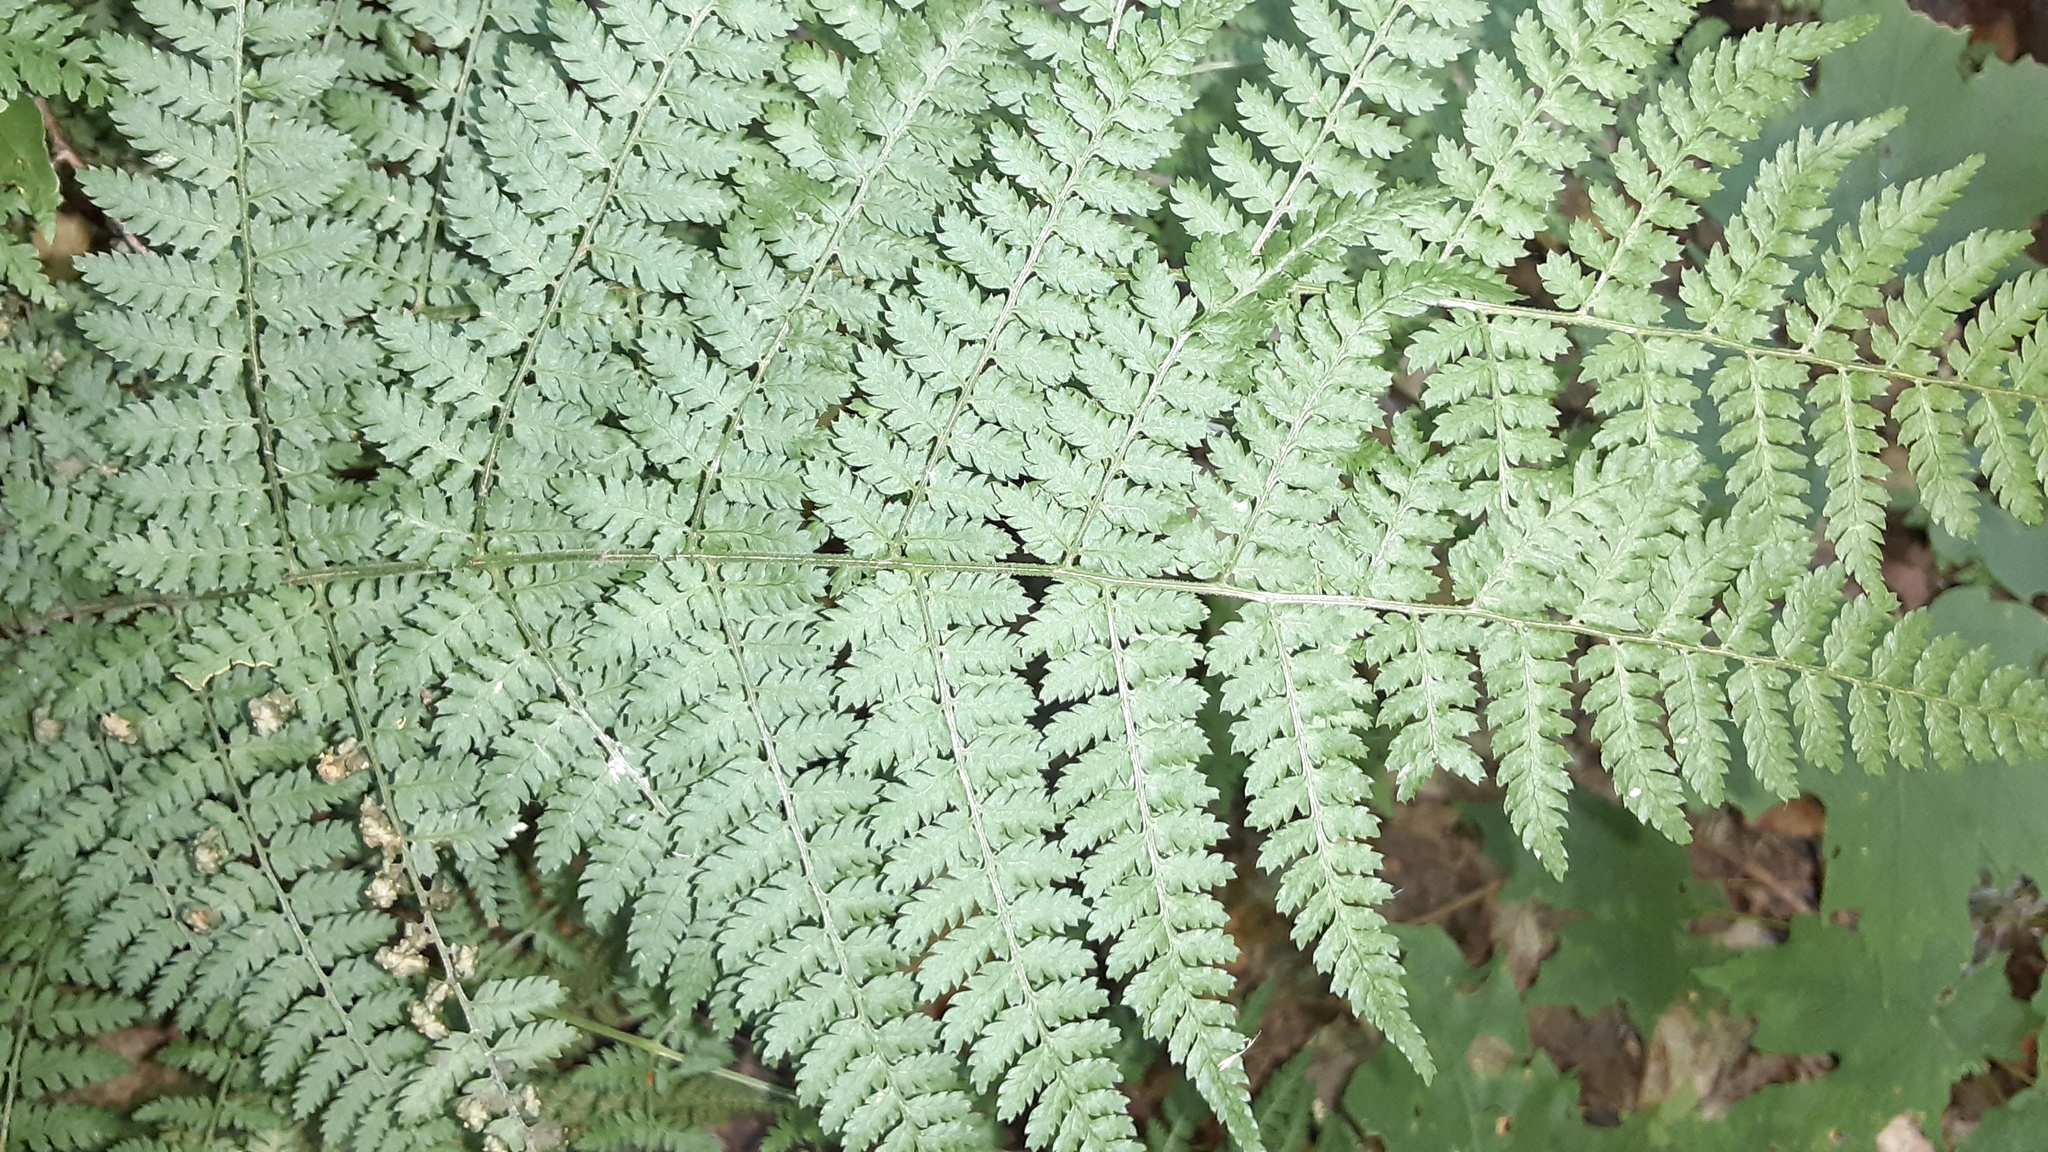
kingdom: Plantae
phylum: Tracheophyta
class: Polypodiopsida
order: Polypodiales
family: Dryopteridaceae
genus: Dryopteris
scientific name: Dryopteris intermedia
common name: Evergreen wood fern
